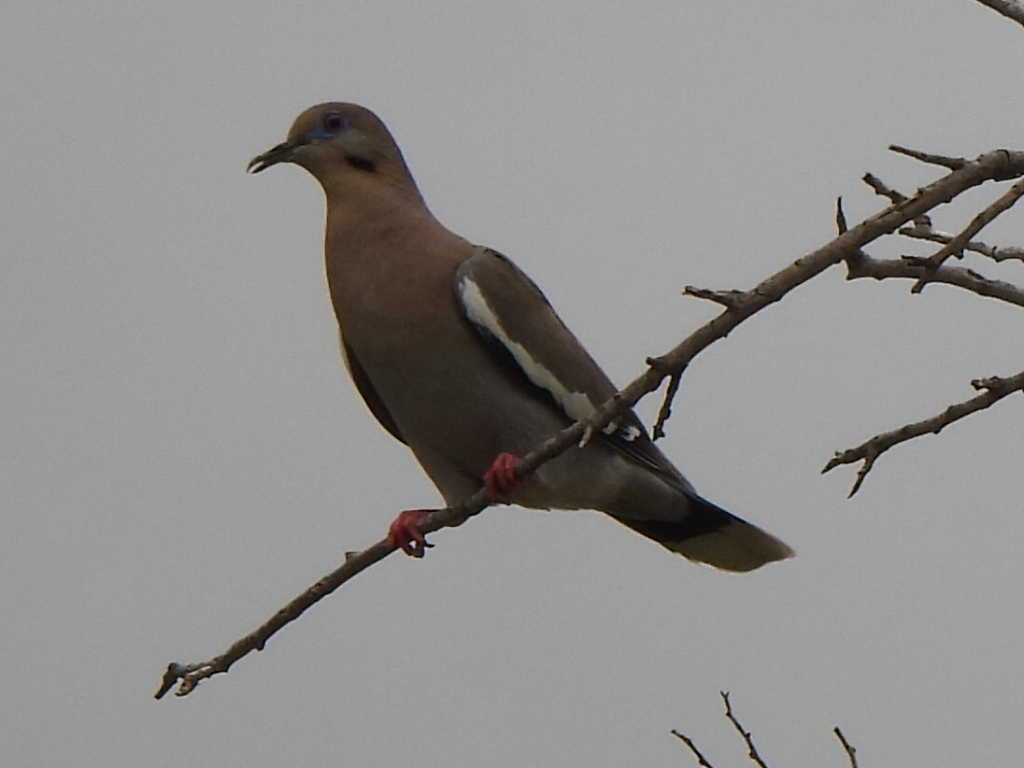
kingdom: Animalia
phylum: Chordata
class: Aves
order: Columbiformes
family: Columbidae
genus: Zenaida
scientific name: Zenaida asiatica
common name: White-winged dove
